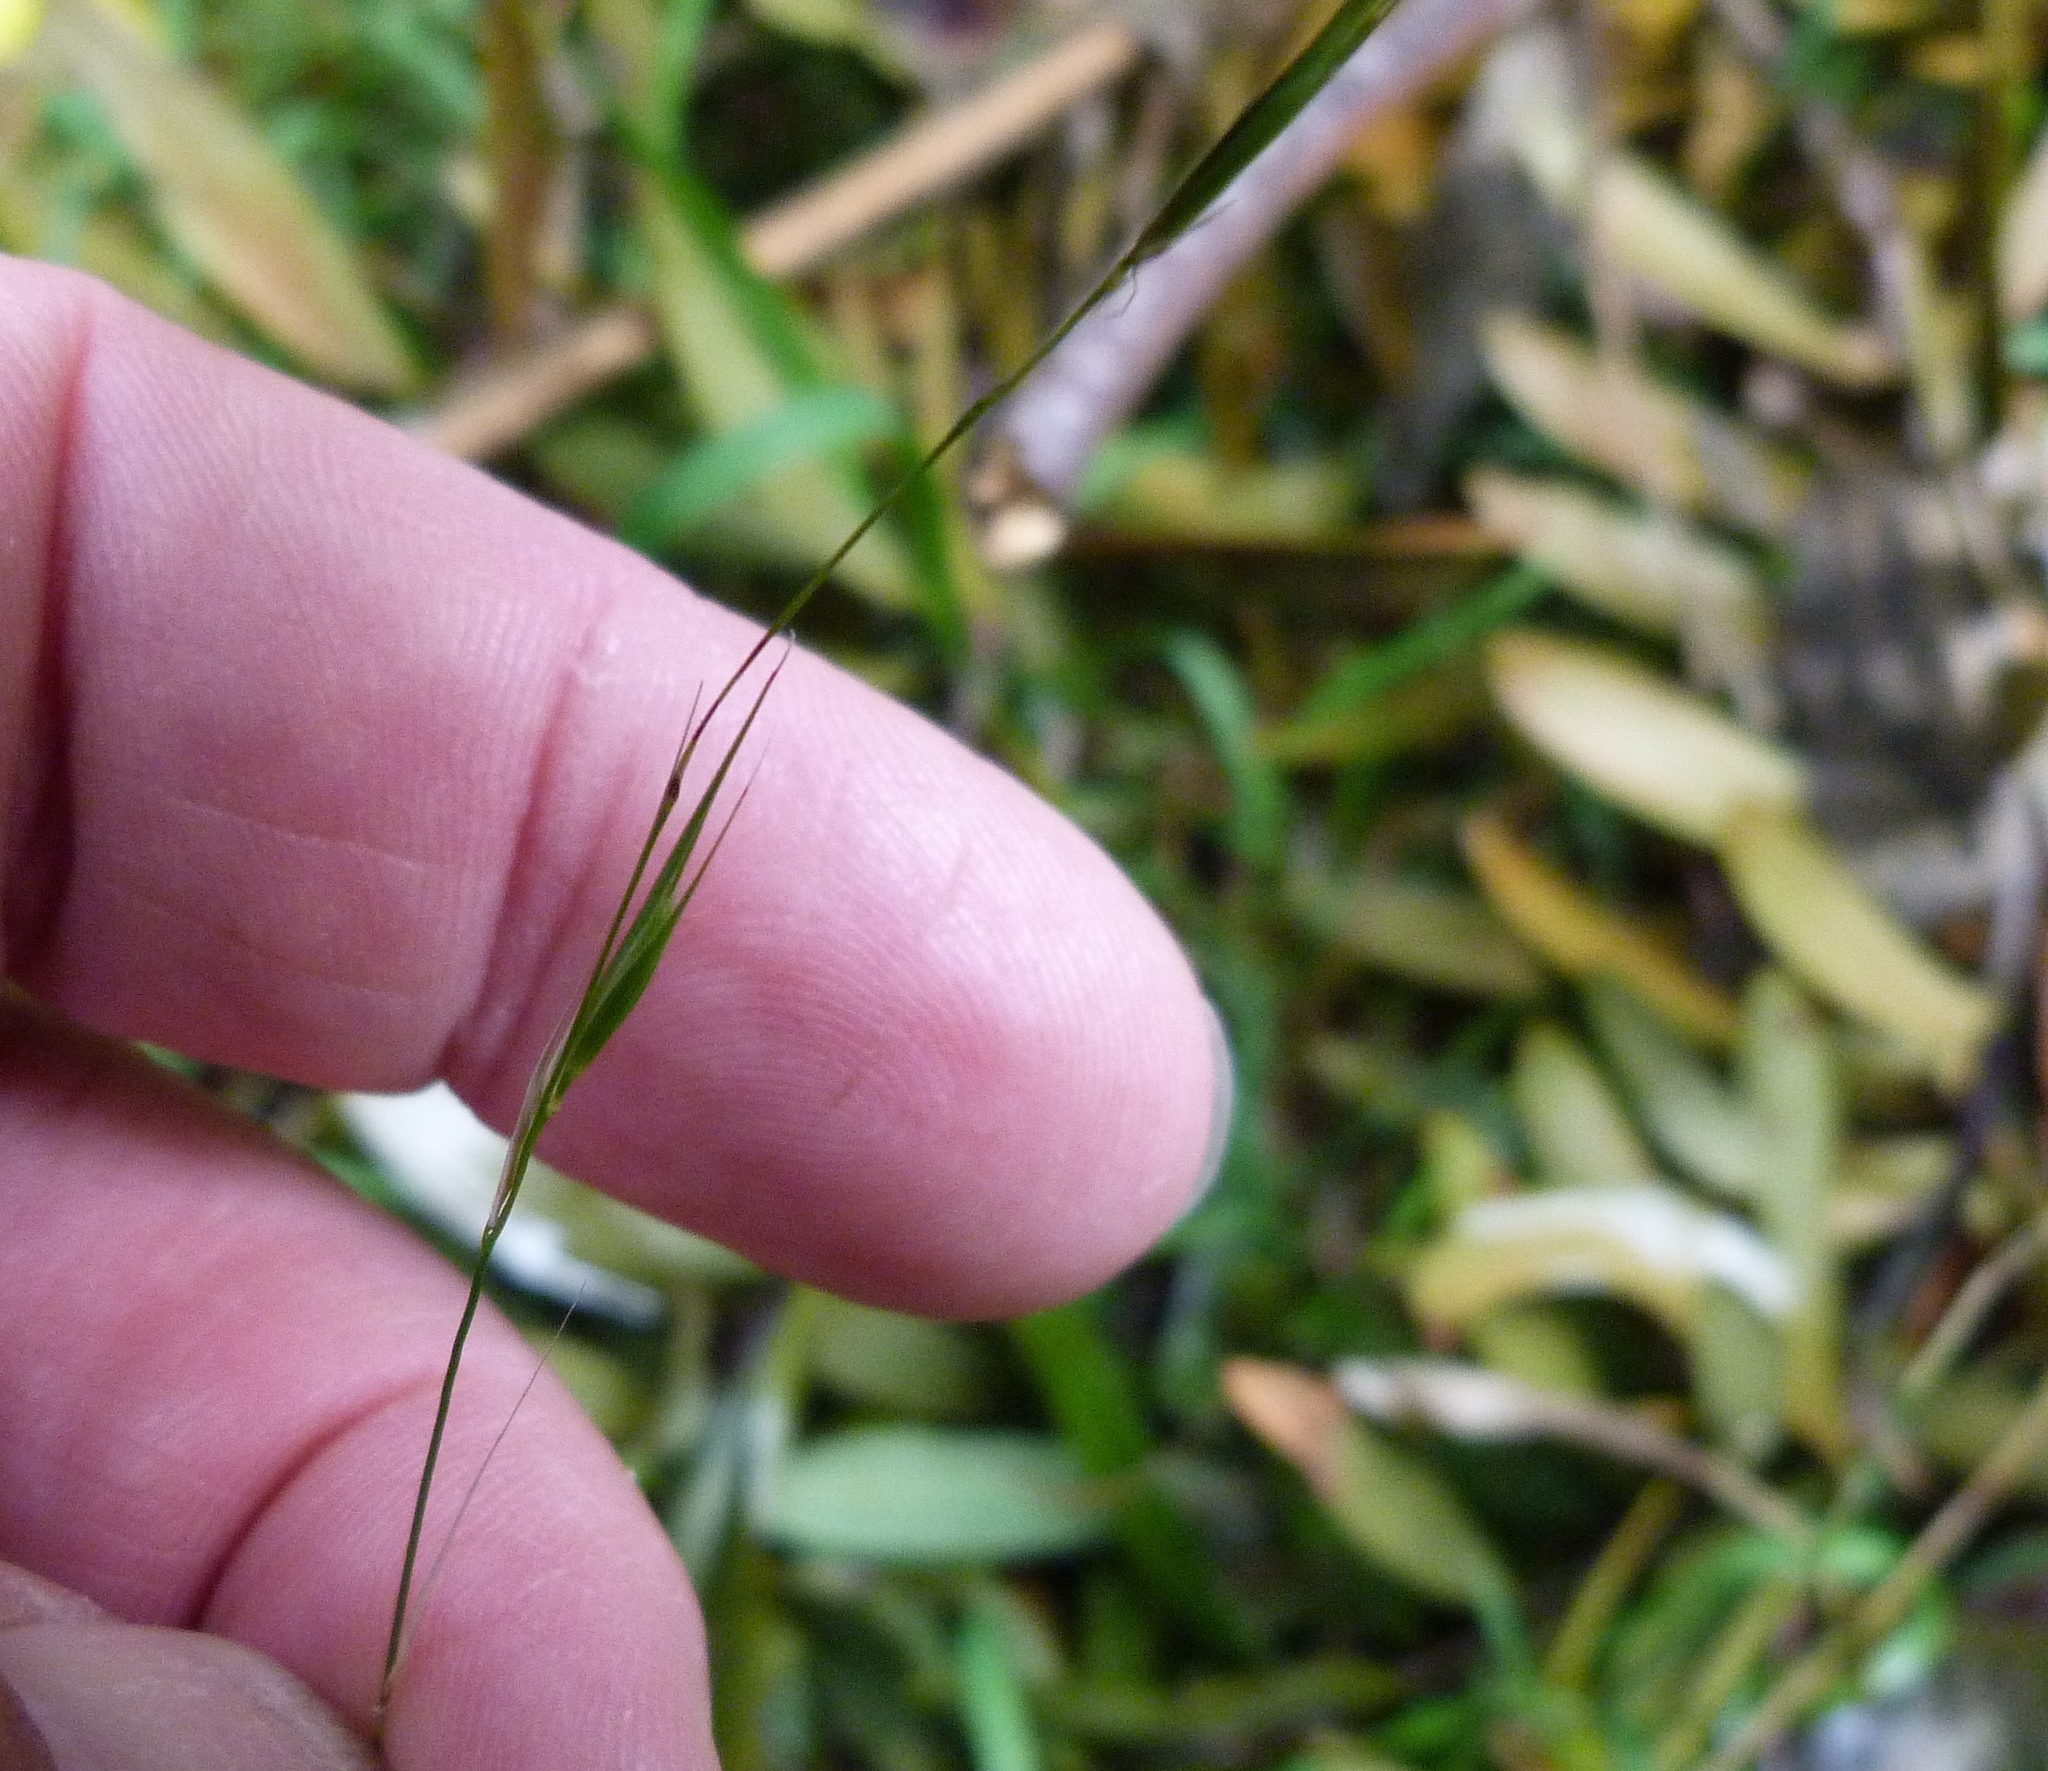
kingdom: Plantae
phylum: Tracheophyta
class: Liliopsida
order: Poales
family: Poaceae
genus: Microlaena
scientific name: Microlaena stipoides
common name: Meadow ricegrass
